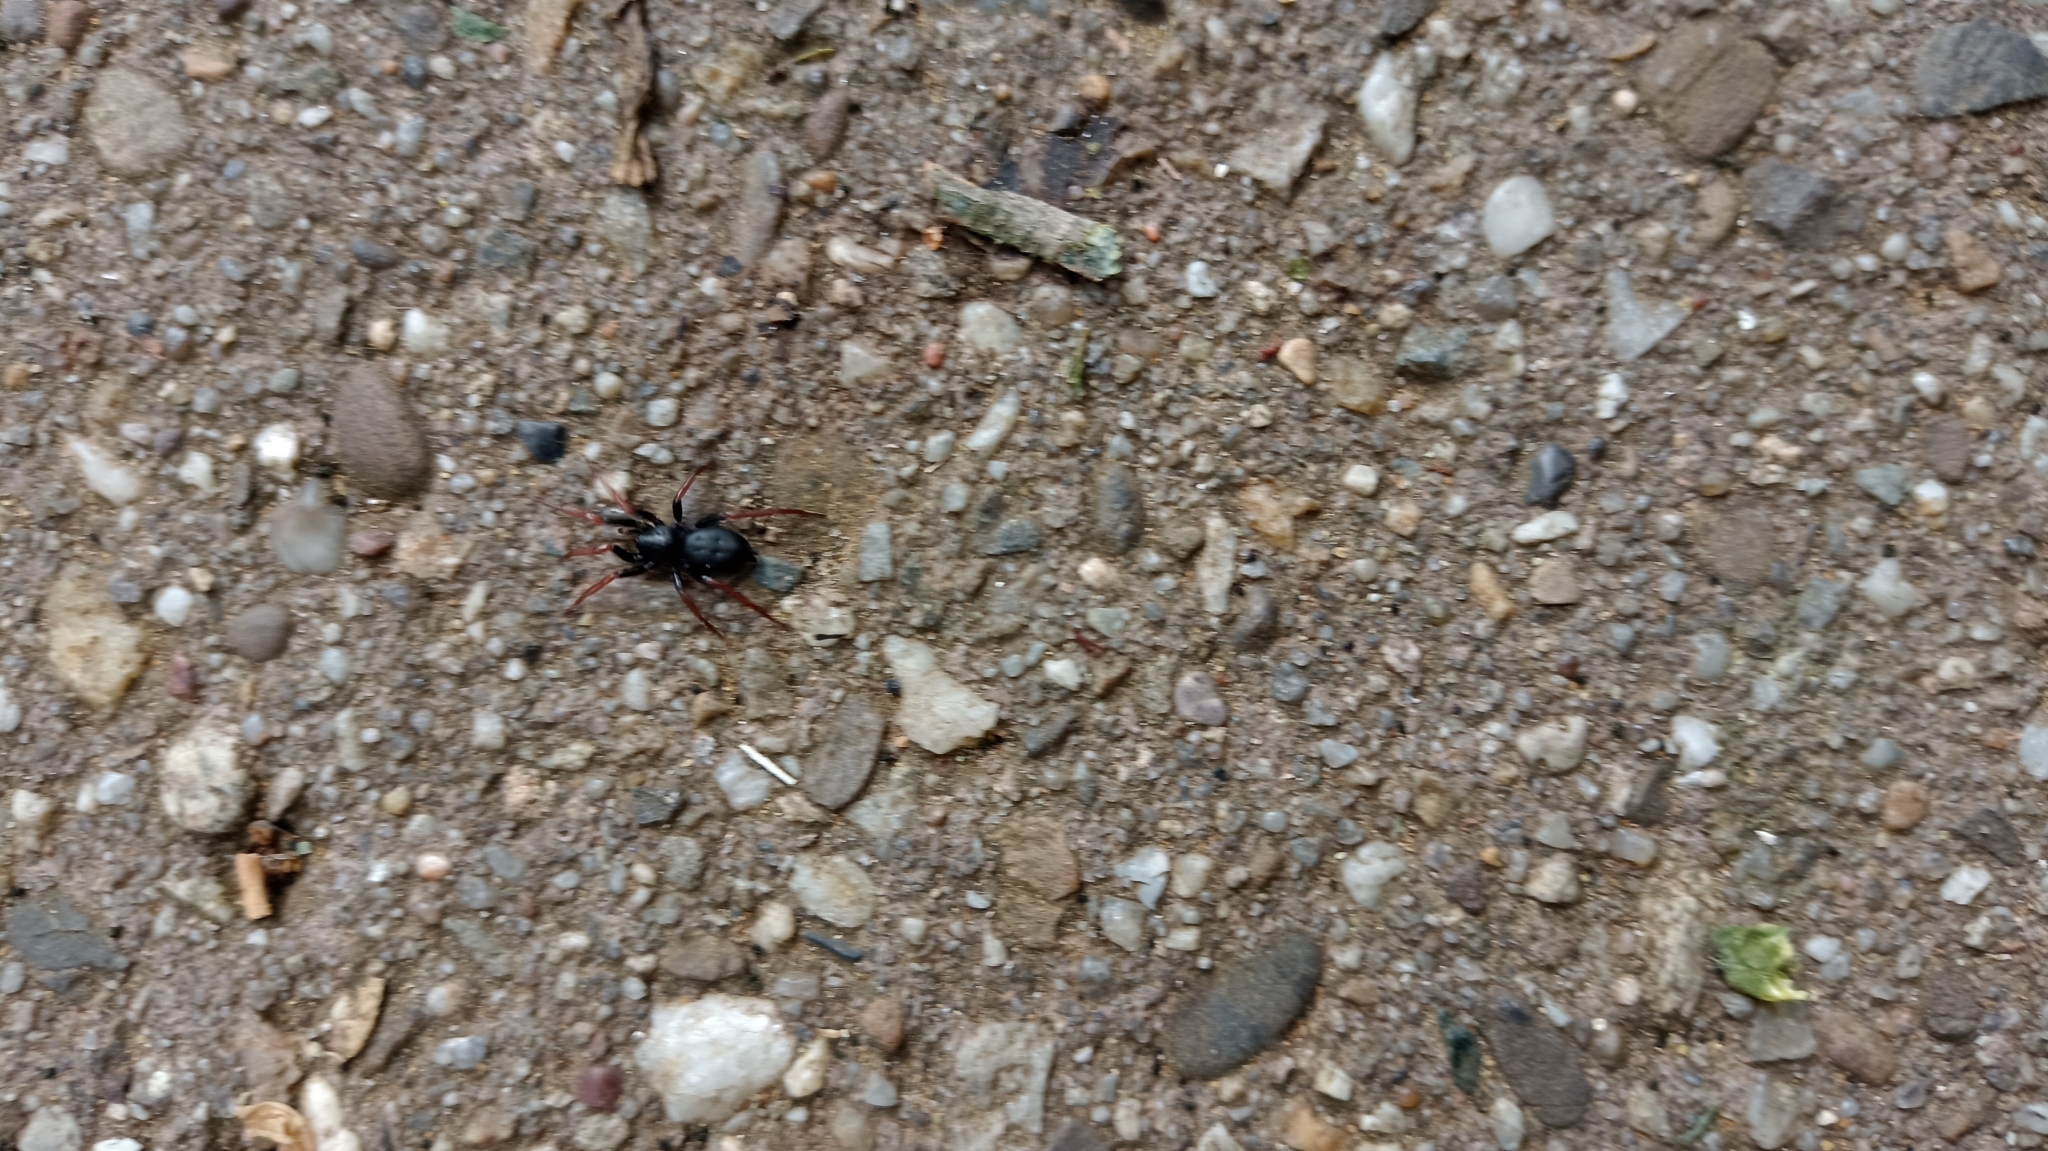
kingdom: Animalia
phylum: Arthropoda
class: Arachnida
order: Araneae
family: Gnaphosidae
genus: Trachyzelotes
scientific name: Trachyzelotes pedestris
